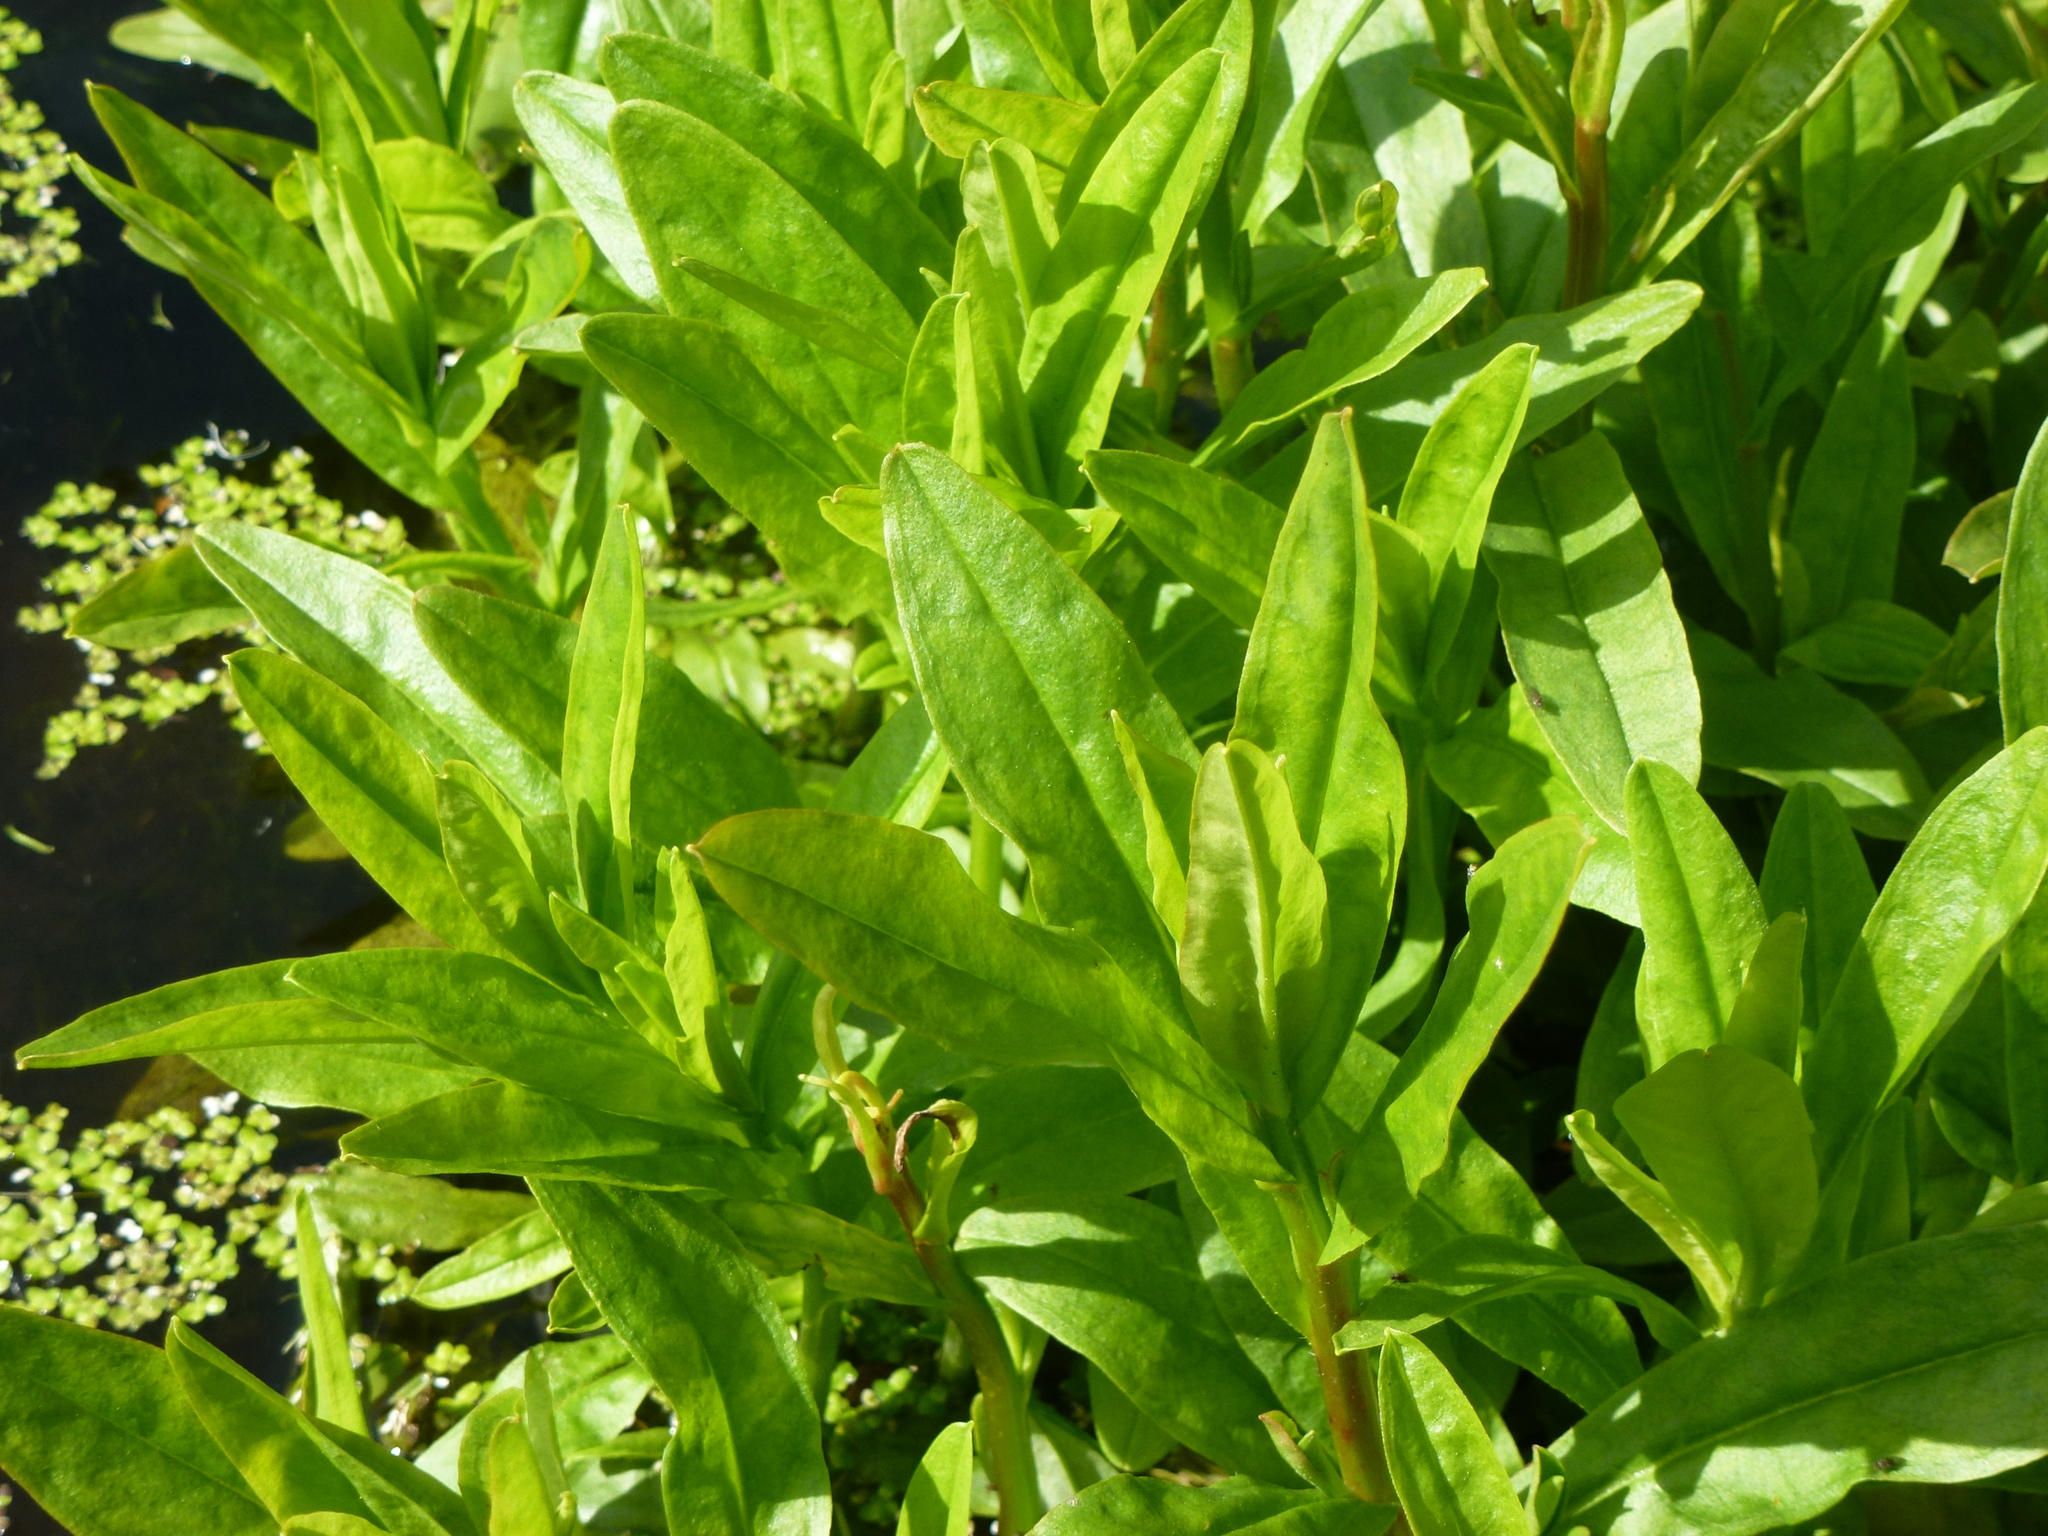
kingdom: Plantae
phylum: Tracheophyta
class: Magnoliopsida
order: Boraginales
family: Boraginaceae
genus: Myosotis
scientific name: Myosotis scorpioides
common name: Water forget-me-not
